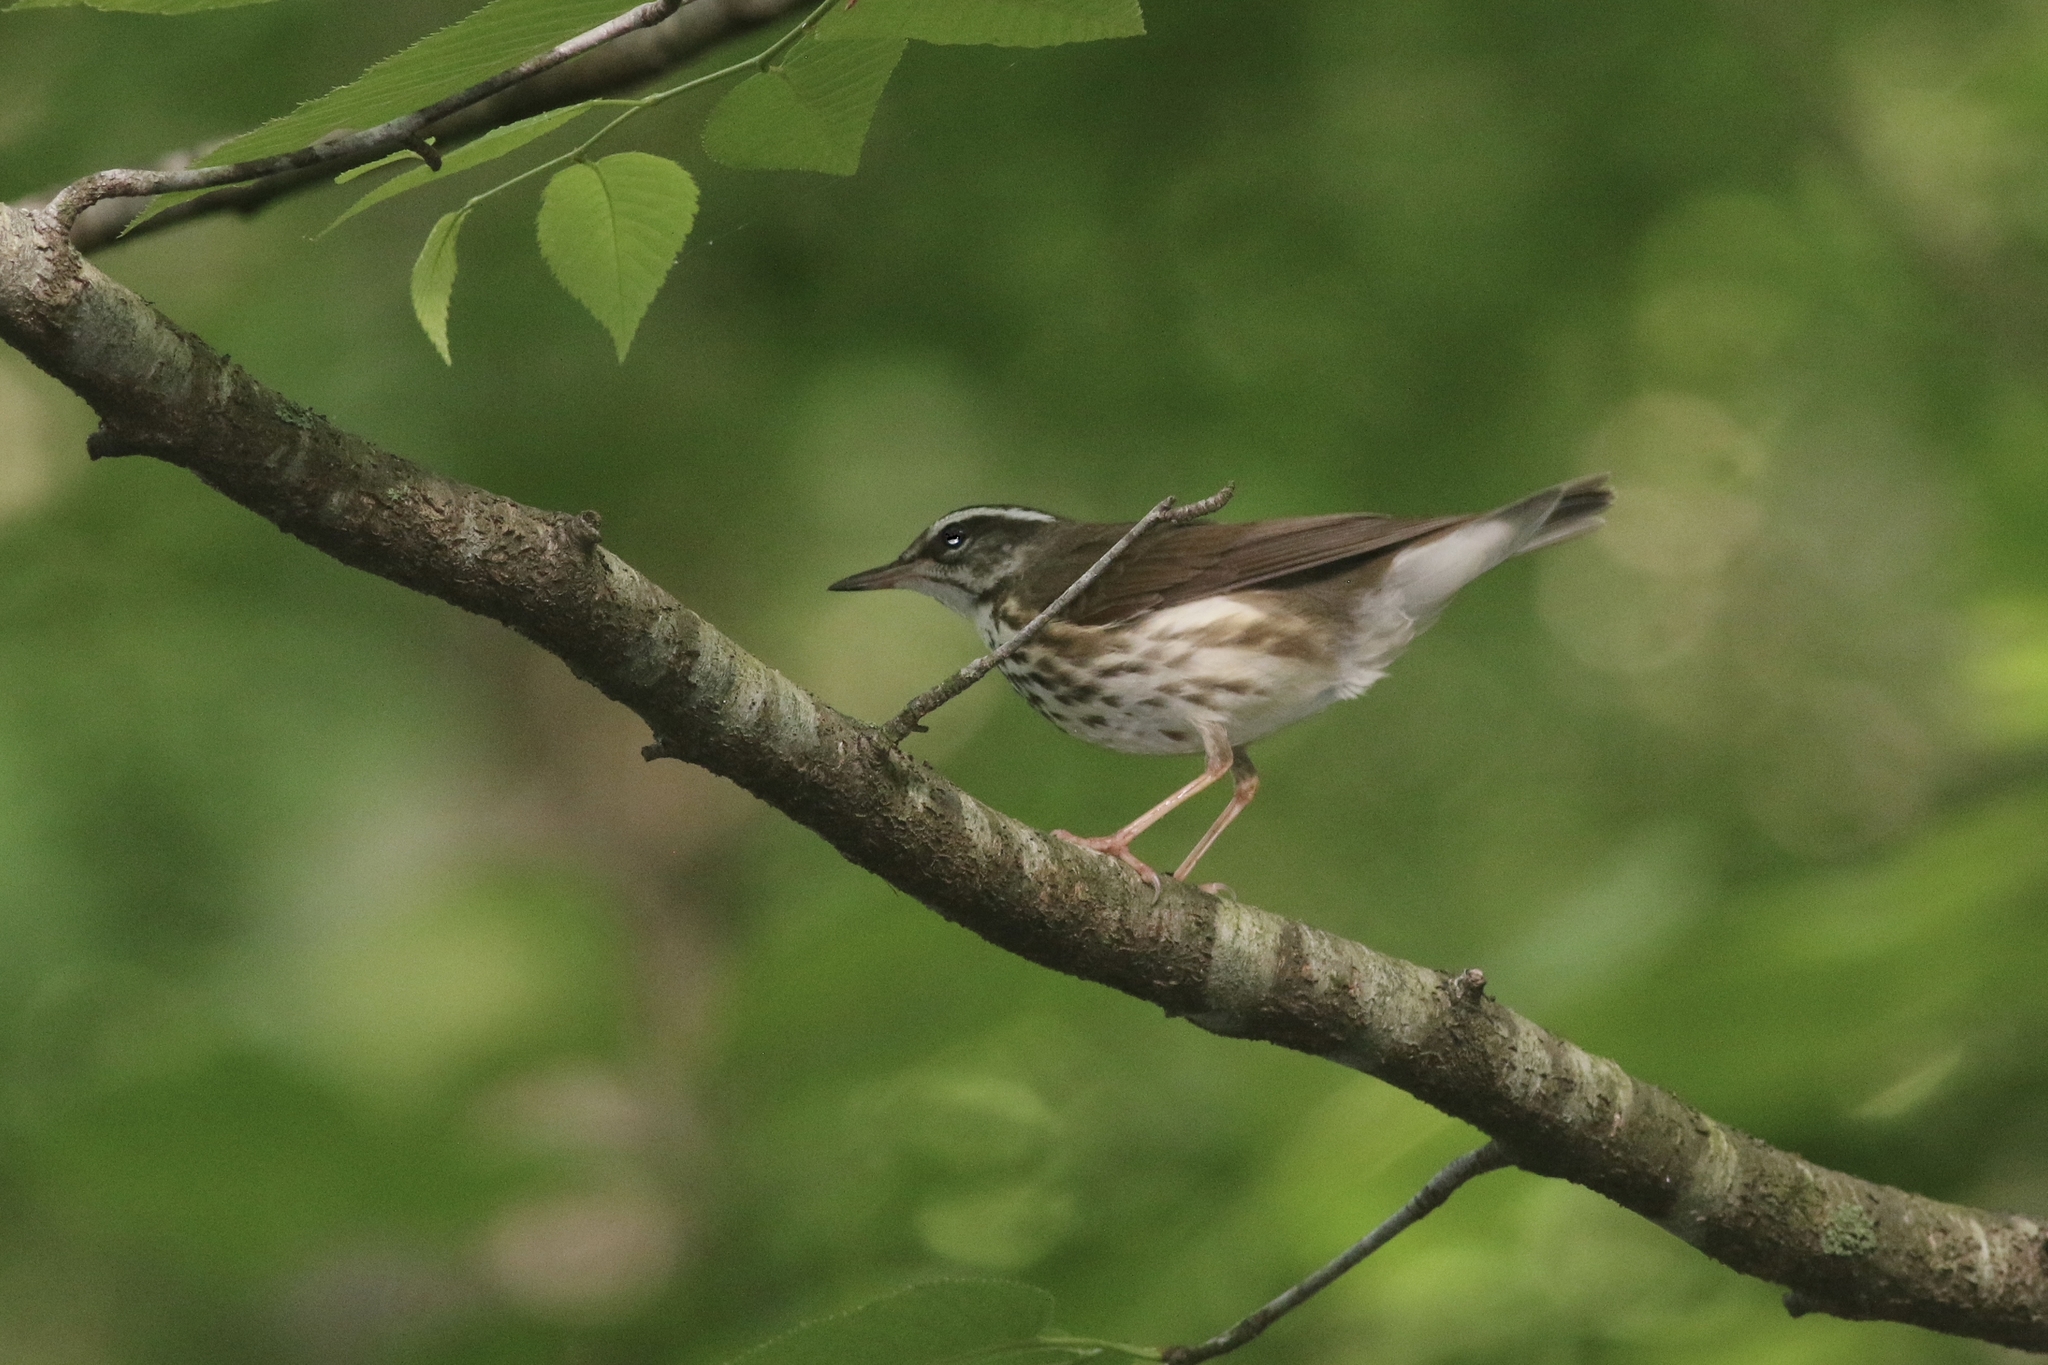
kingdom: Animalia
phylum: Chordata
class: Aves
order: Passeriformes
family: Parulidae
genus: Parkesia
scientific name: Parkesia motacilla
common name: Louisiana waterthrush
